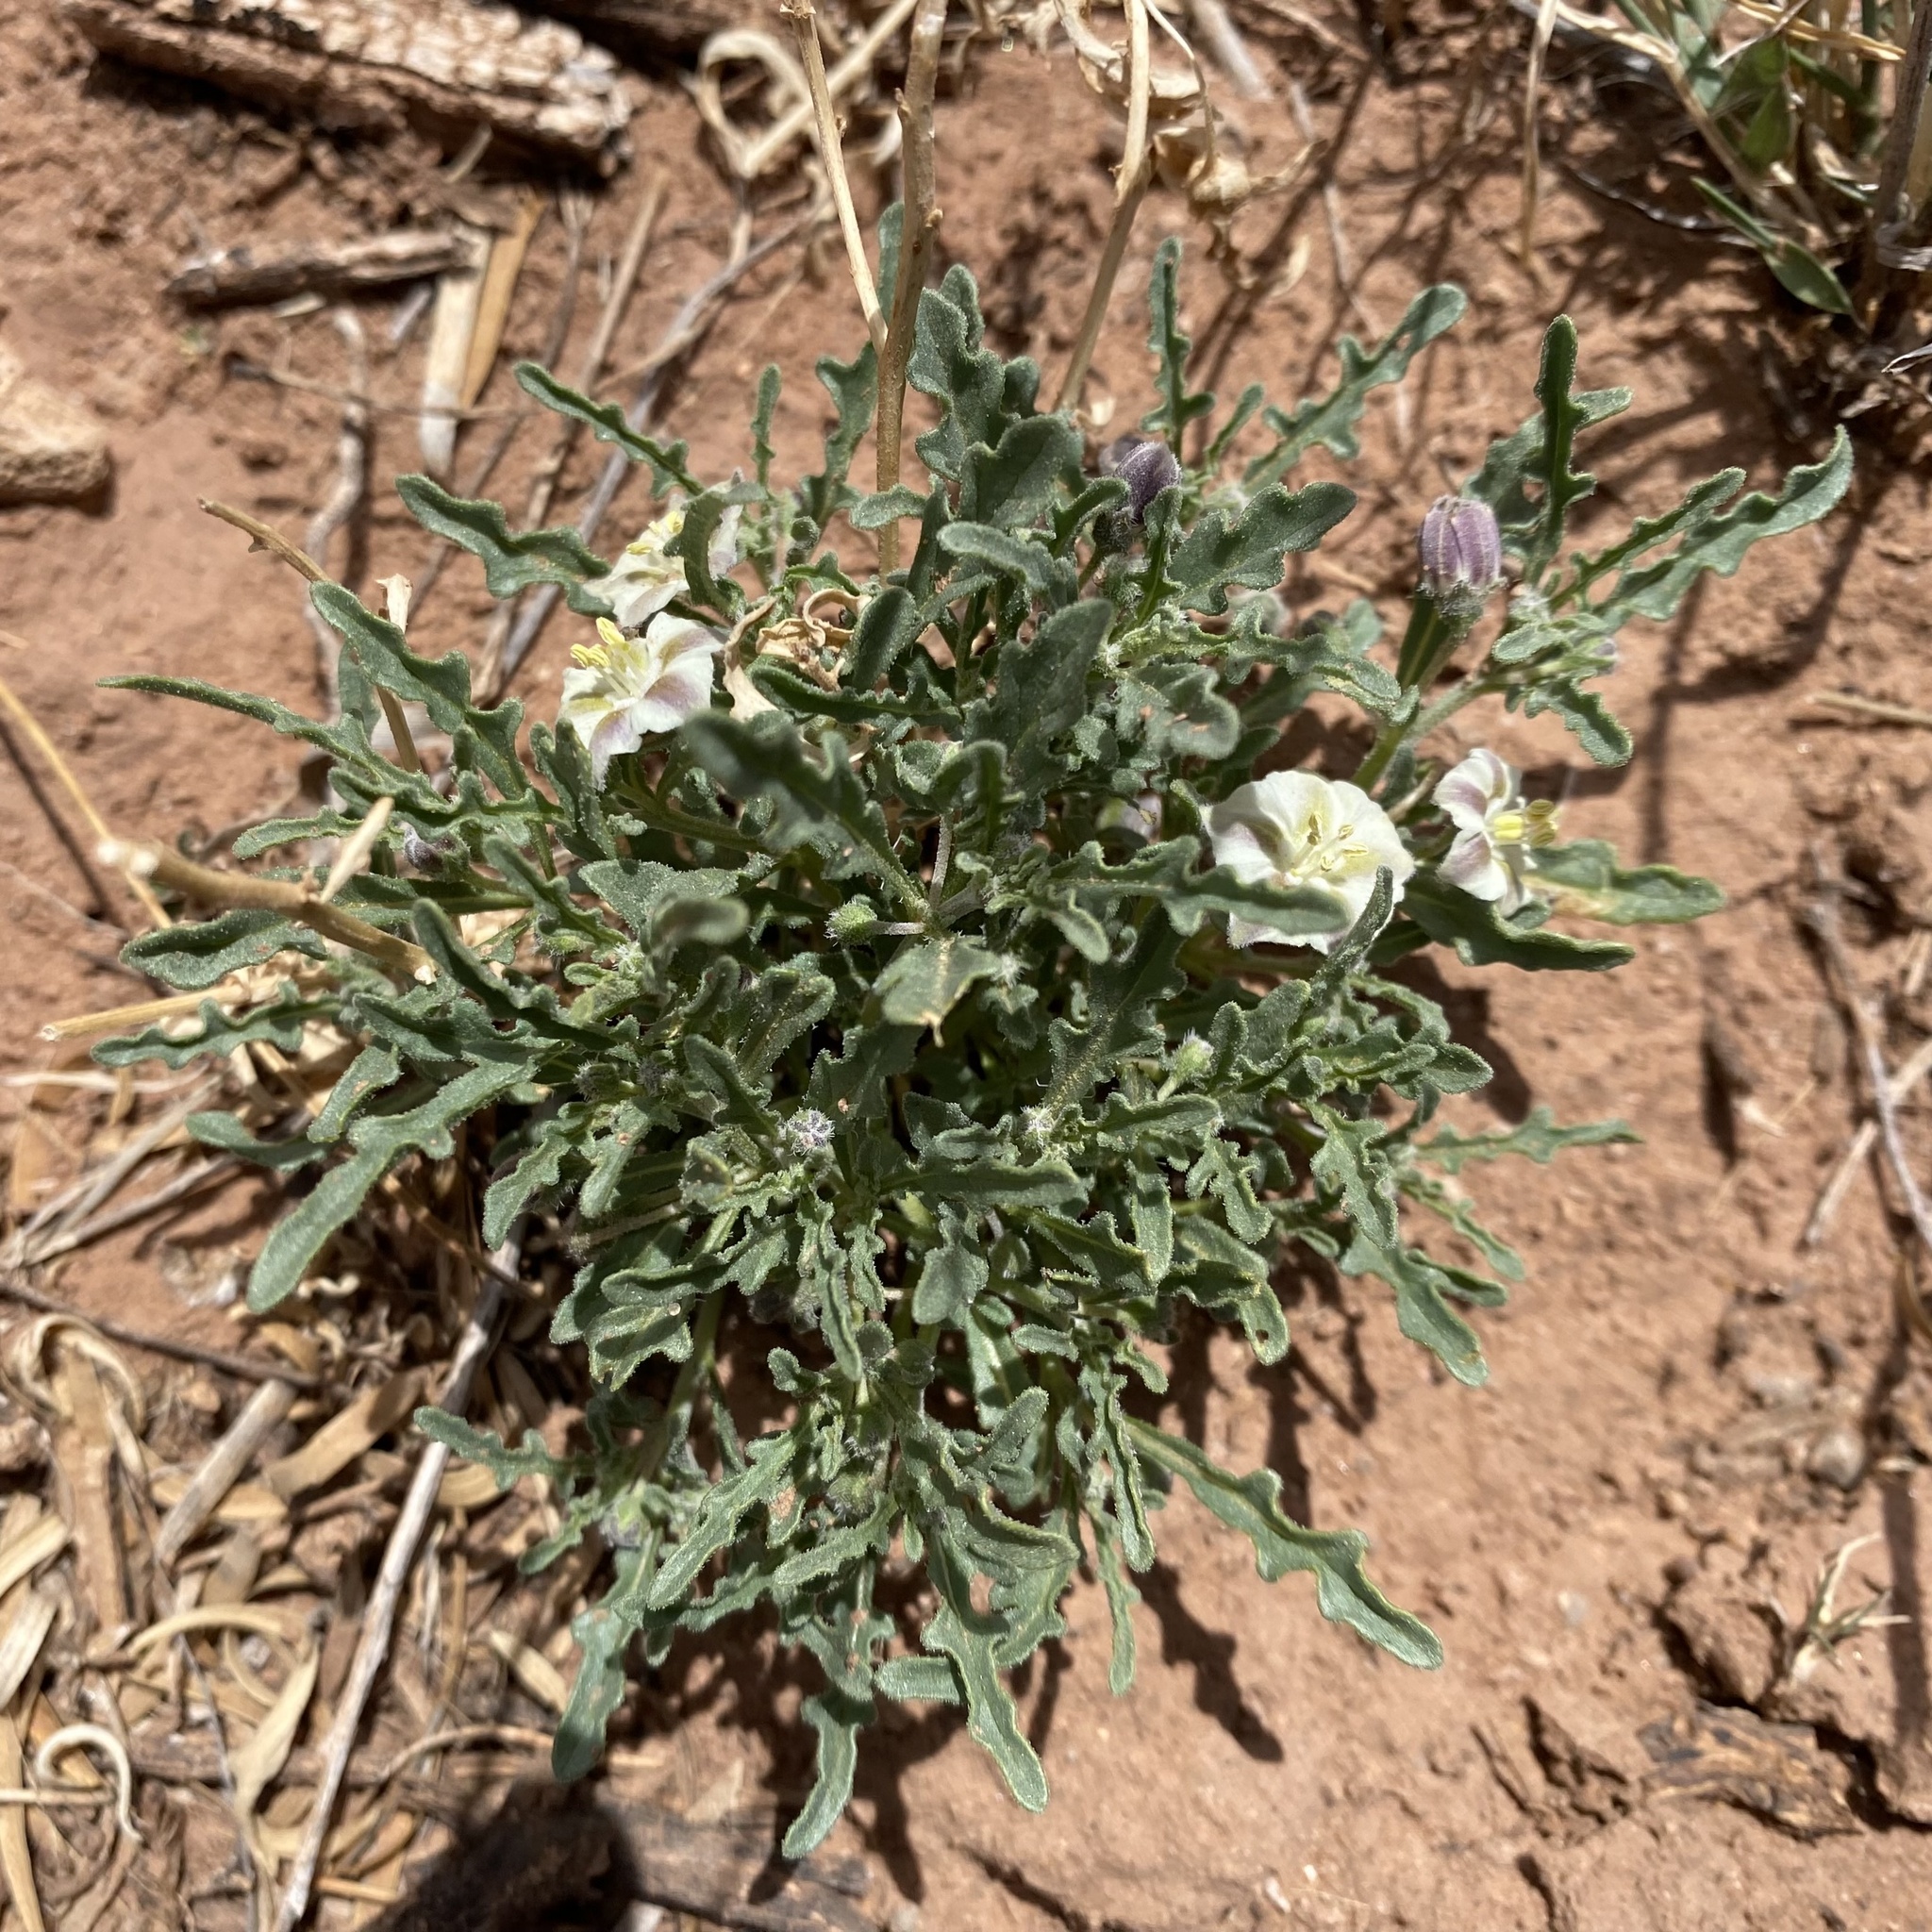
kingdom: Plantae
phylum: Tracheophyta
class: Magnoliopsida
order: Solanales
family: Solanaceae
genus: Chamaesaracha
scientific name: Chamaesaracha coronopus
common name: Smooth chamaesaracha
